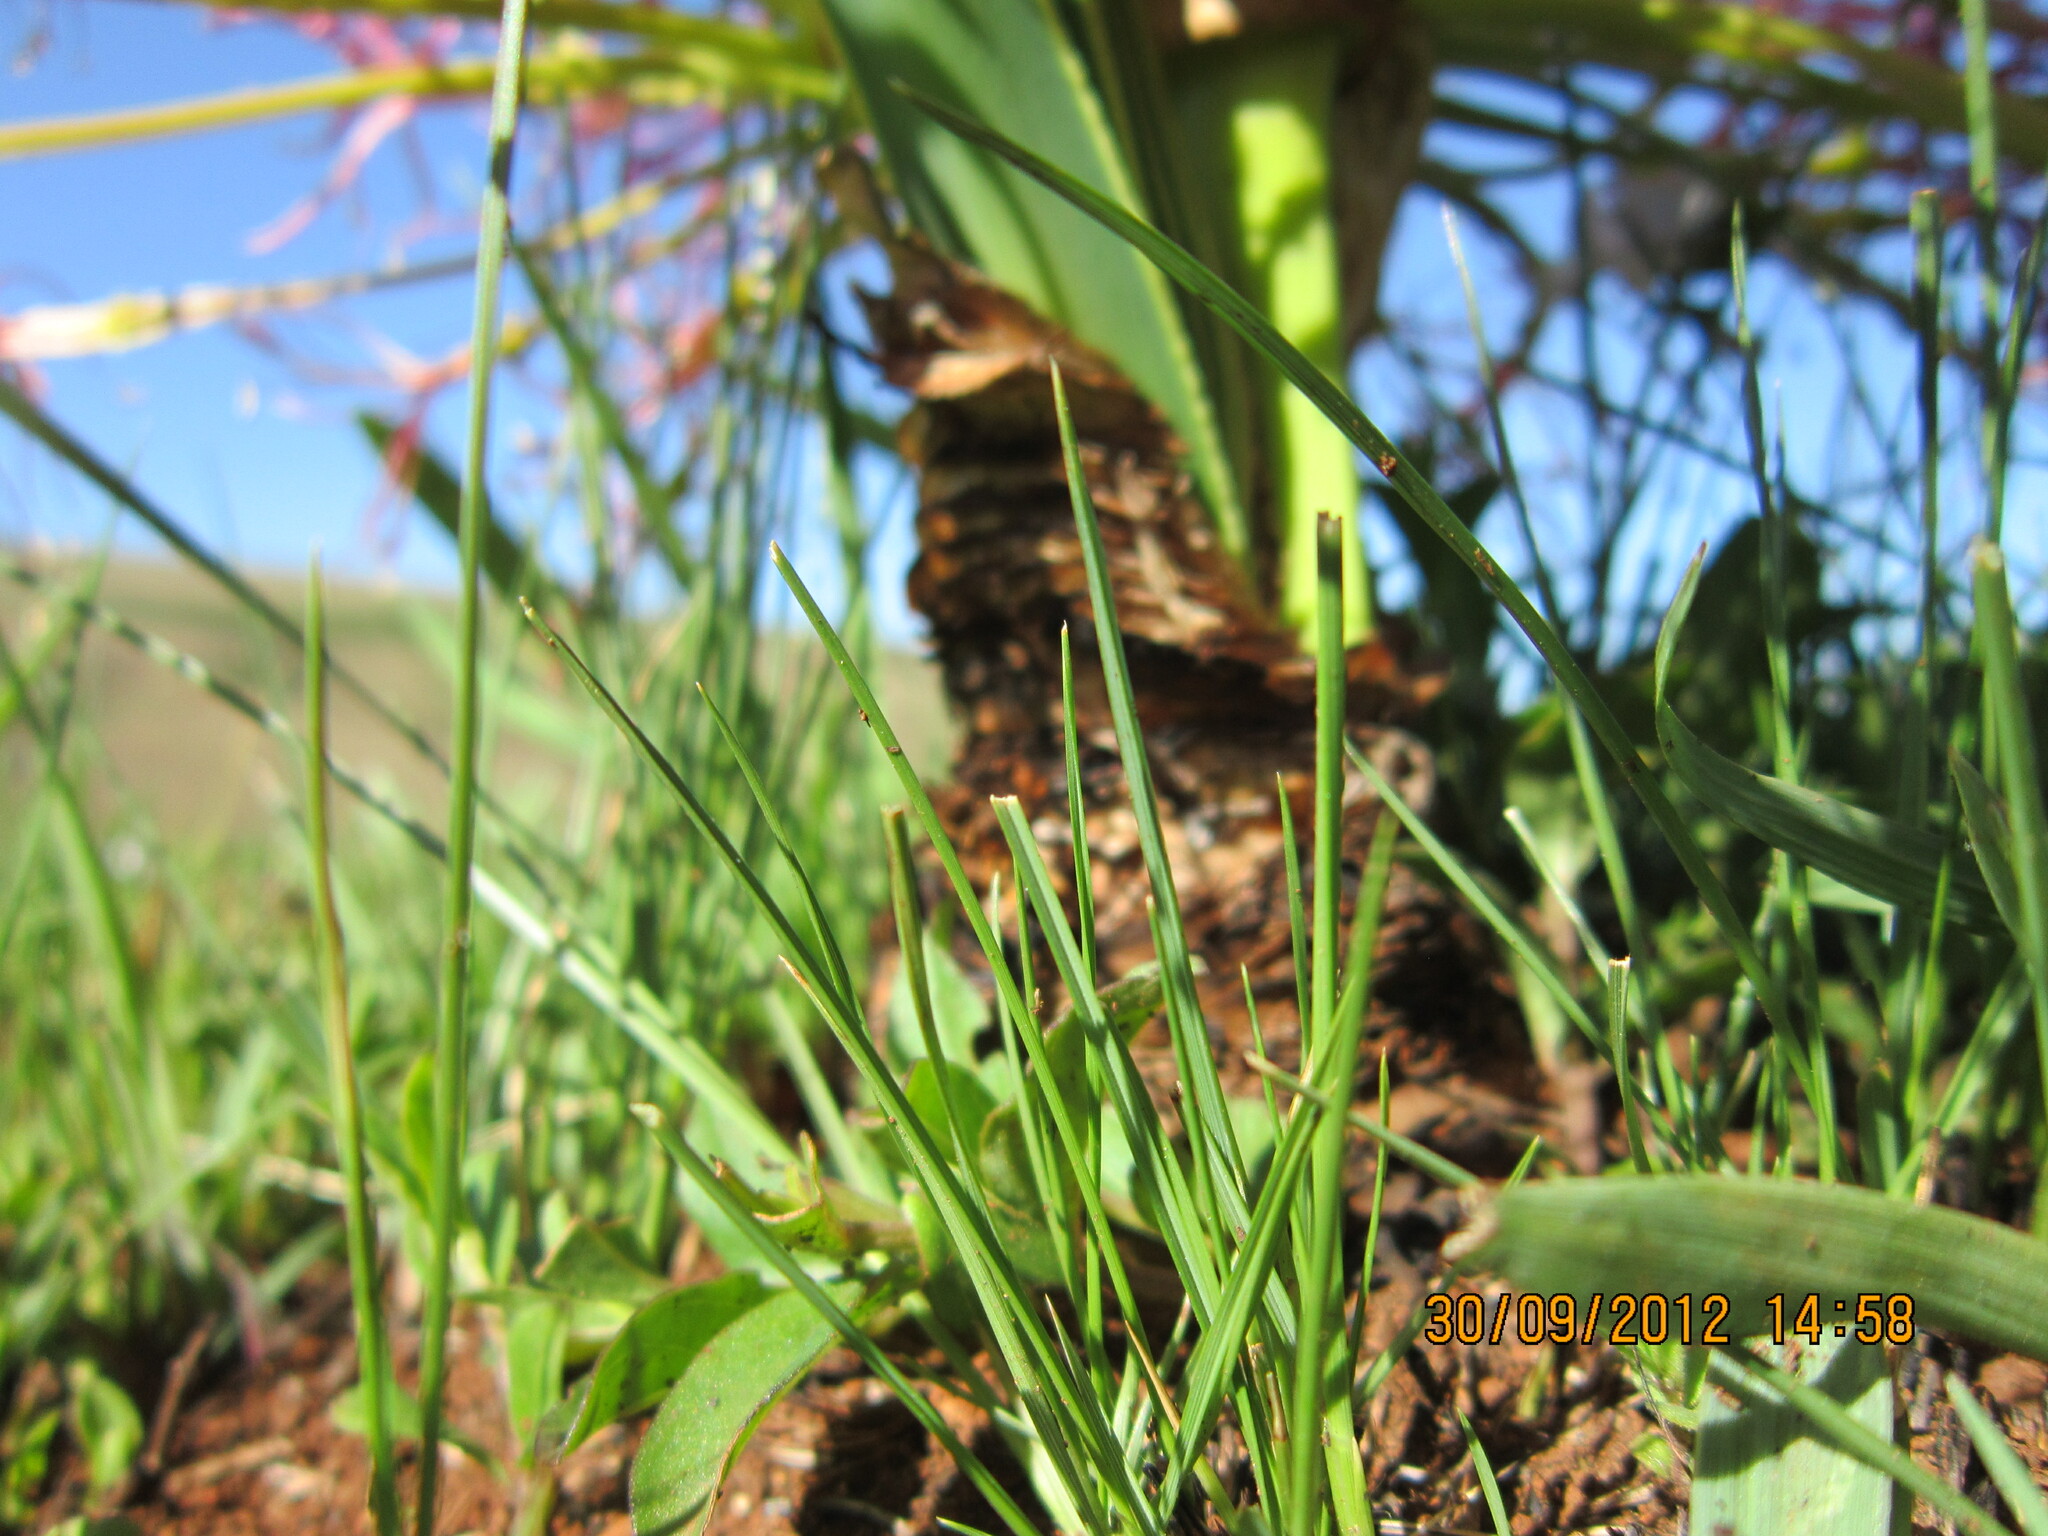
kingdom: Plantae
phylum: Tracheophyta
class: Liliopsida
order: Asparagales
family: Amaryllidaceae
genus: Boophone
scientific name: Boophone disticha
